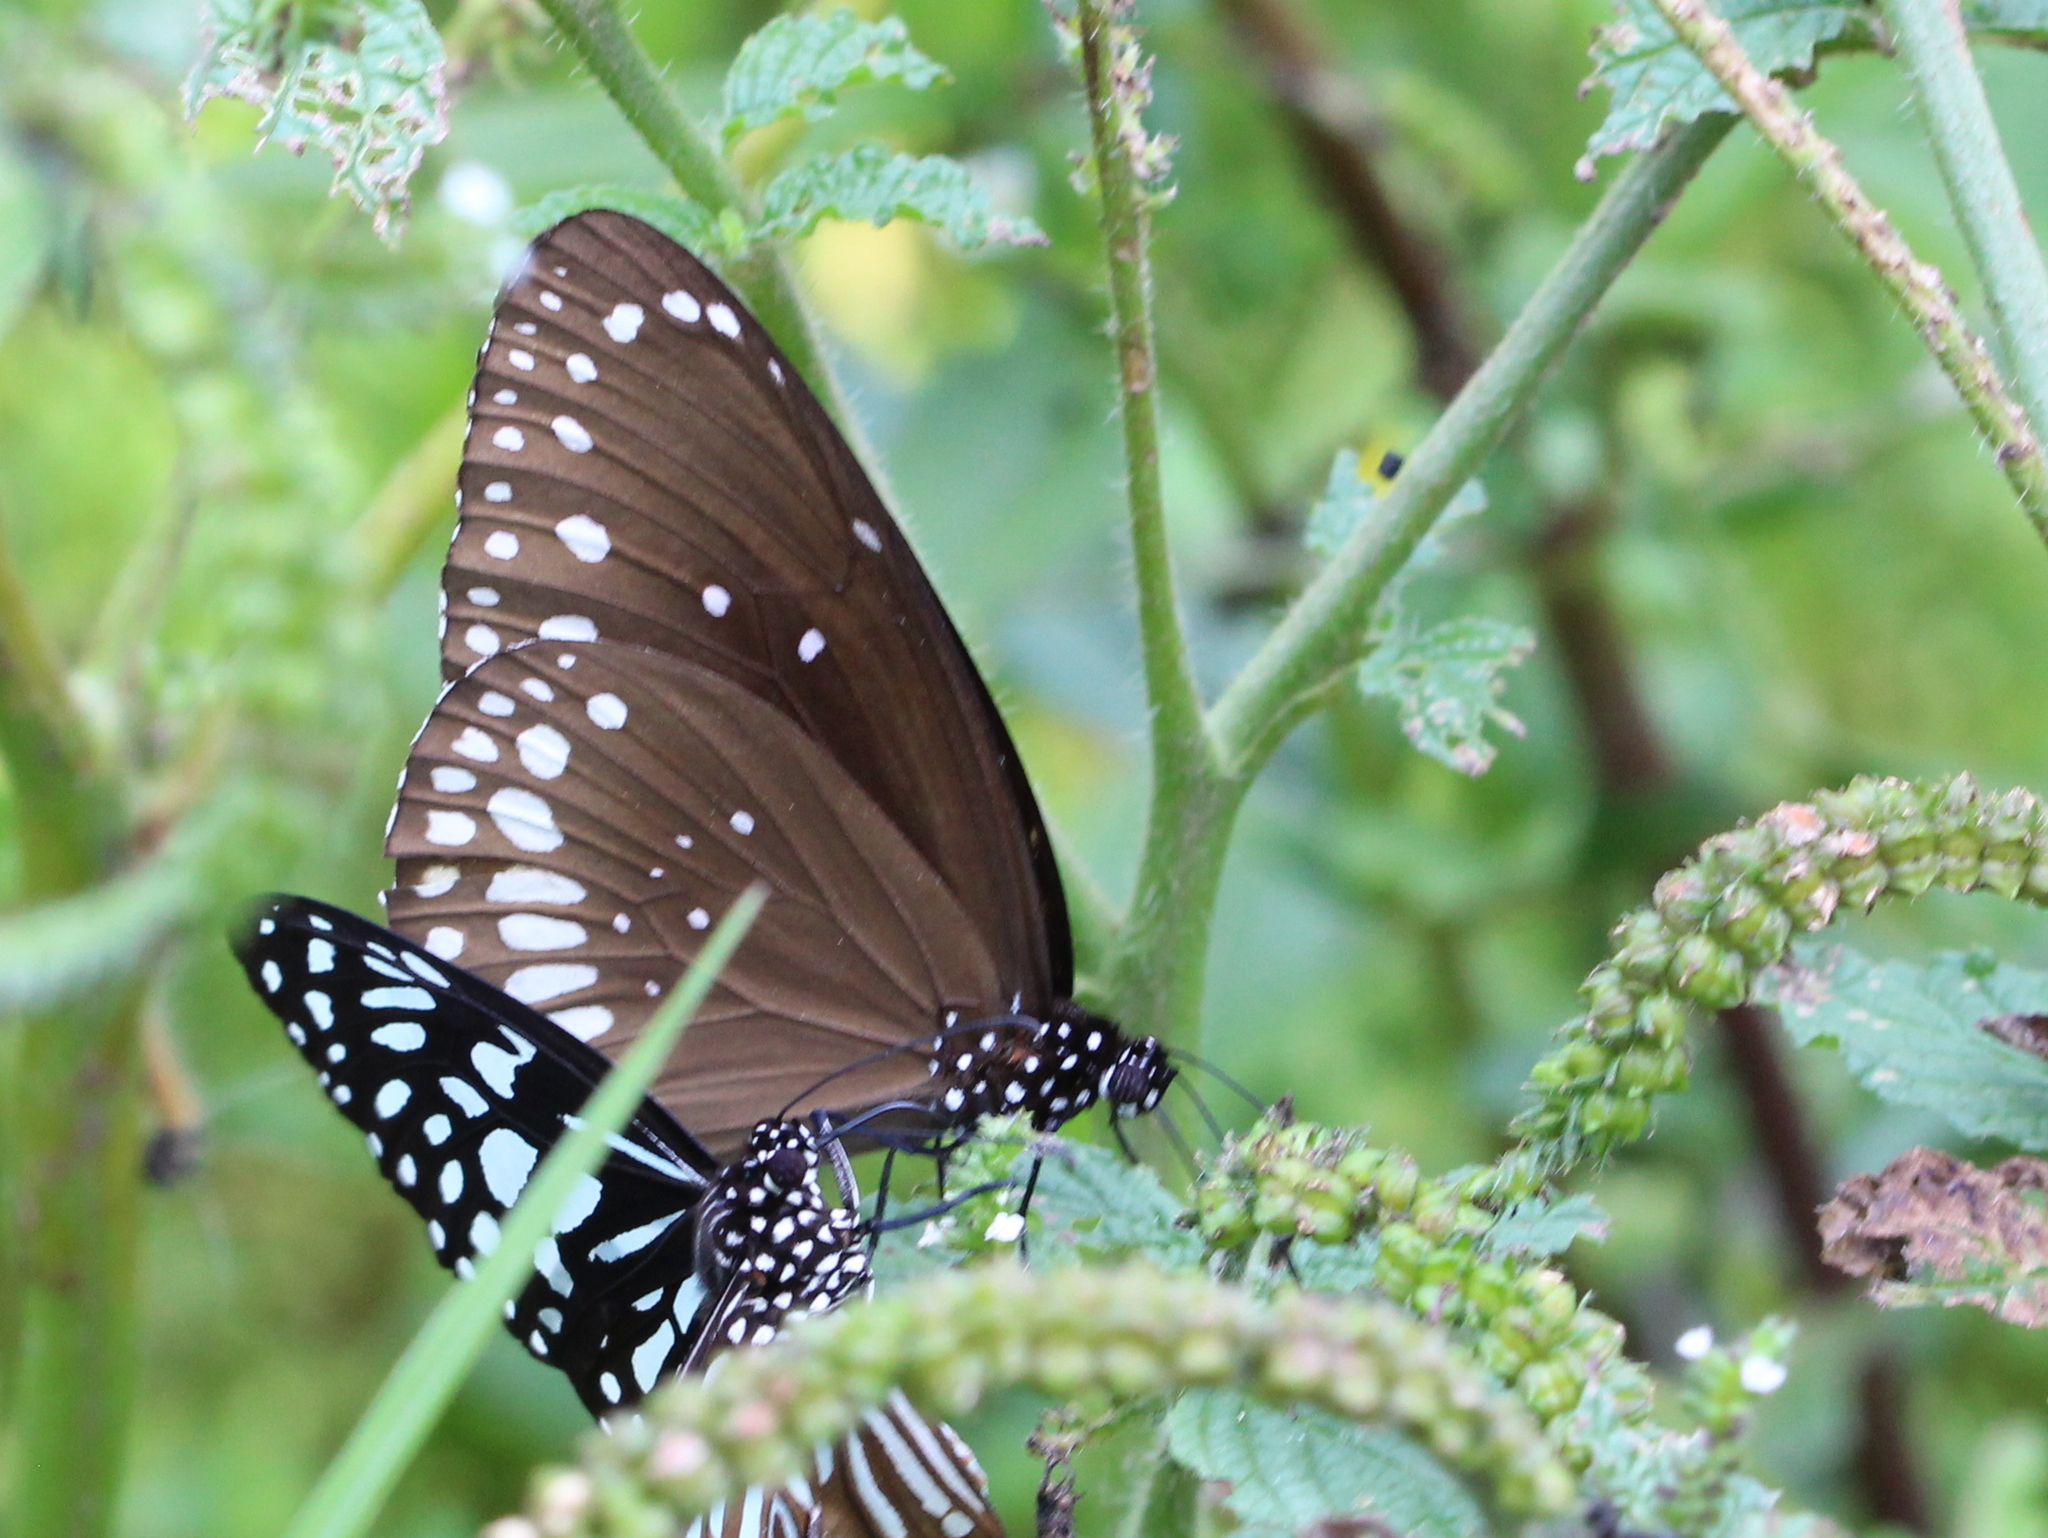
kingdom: Animalia
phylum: Arthropoda
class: Insecta
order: Lepidoptera
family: Nymphalidae
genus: Euploea
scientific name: Euploea core
